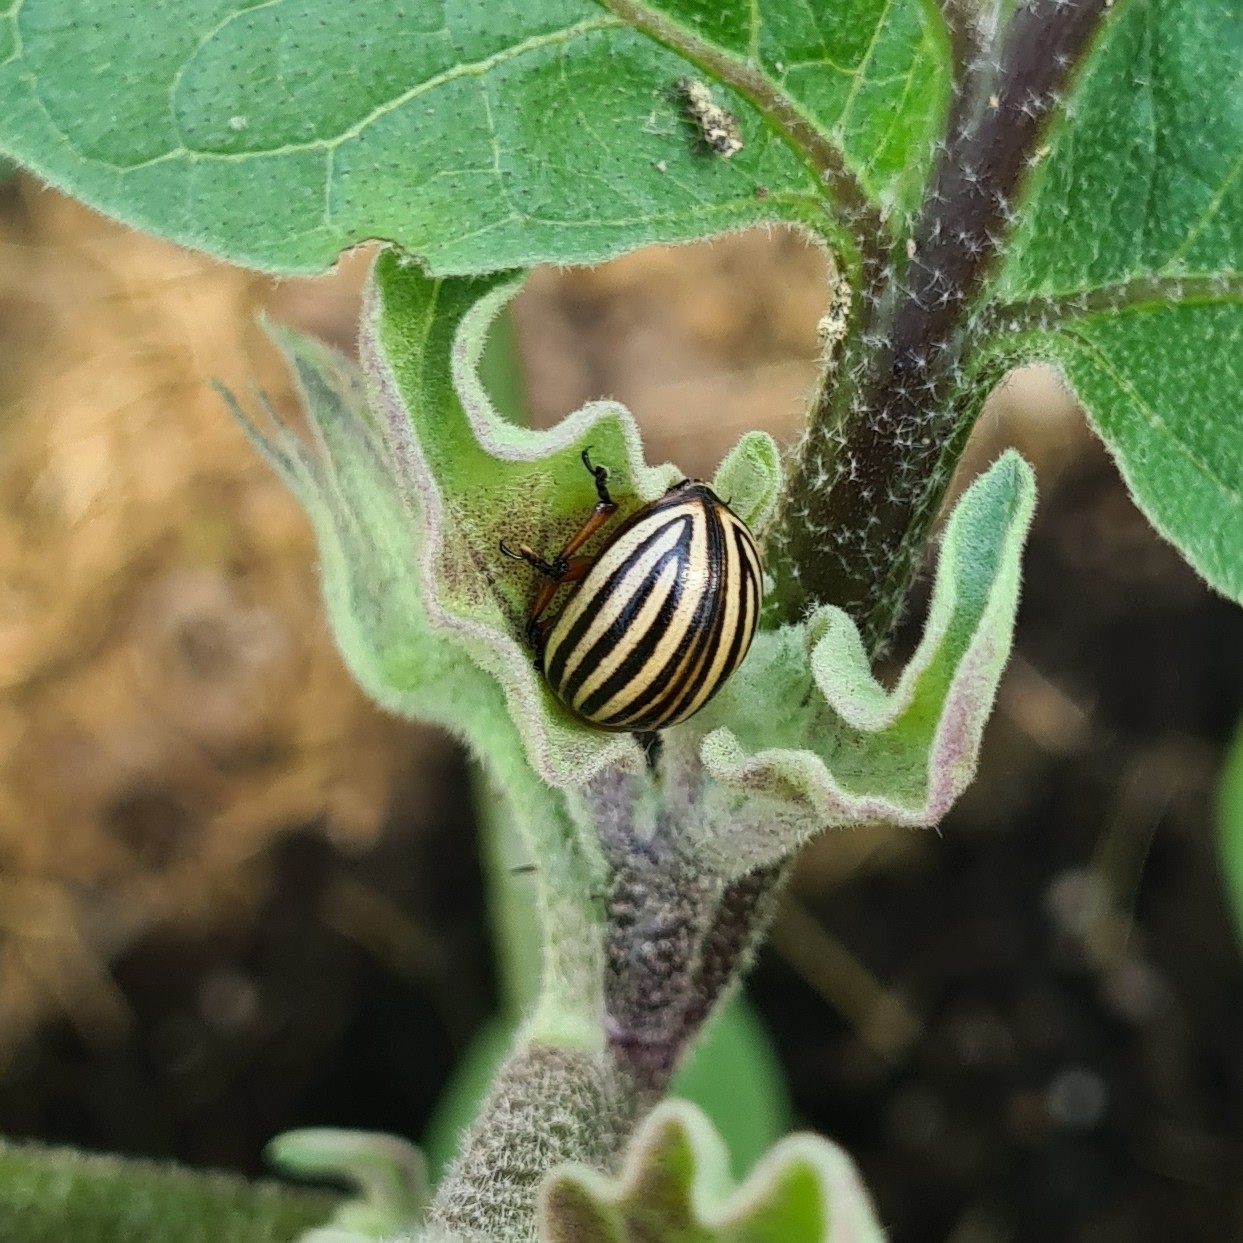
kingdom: Animalia
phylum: Arthropoda
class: Insecta
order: Coleoptera
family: Chrysomelidae
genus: Leptinotarsa
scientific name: Leptinotarsa decemlineata
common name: Colorado potato beetle
